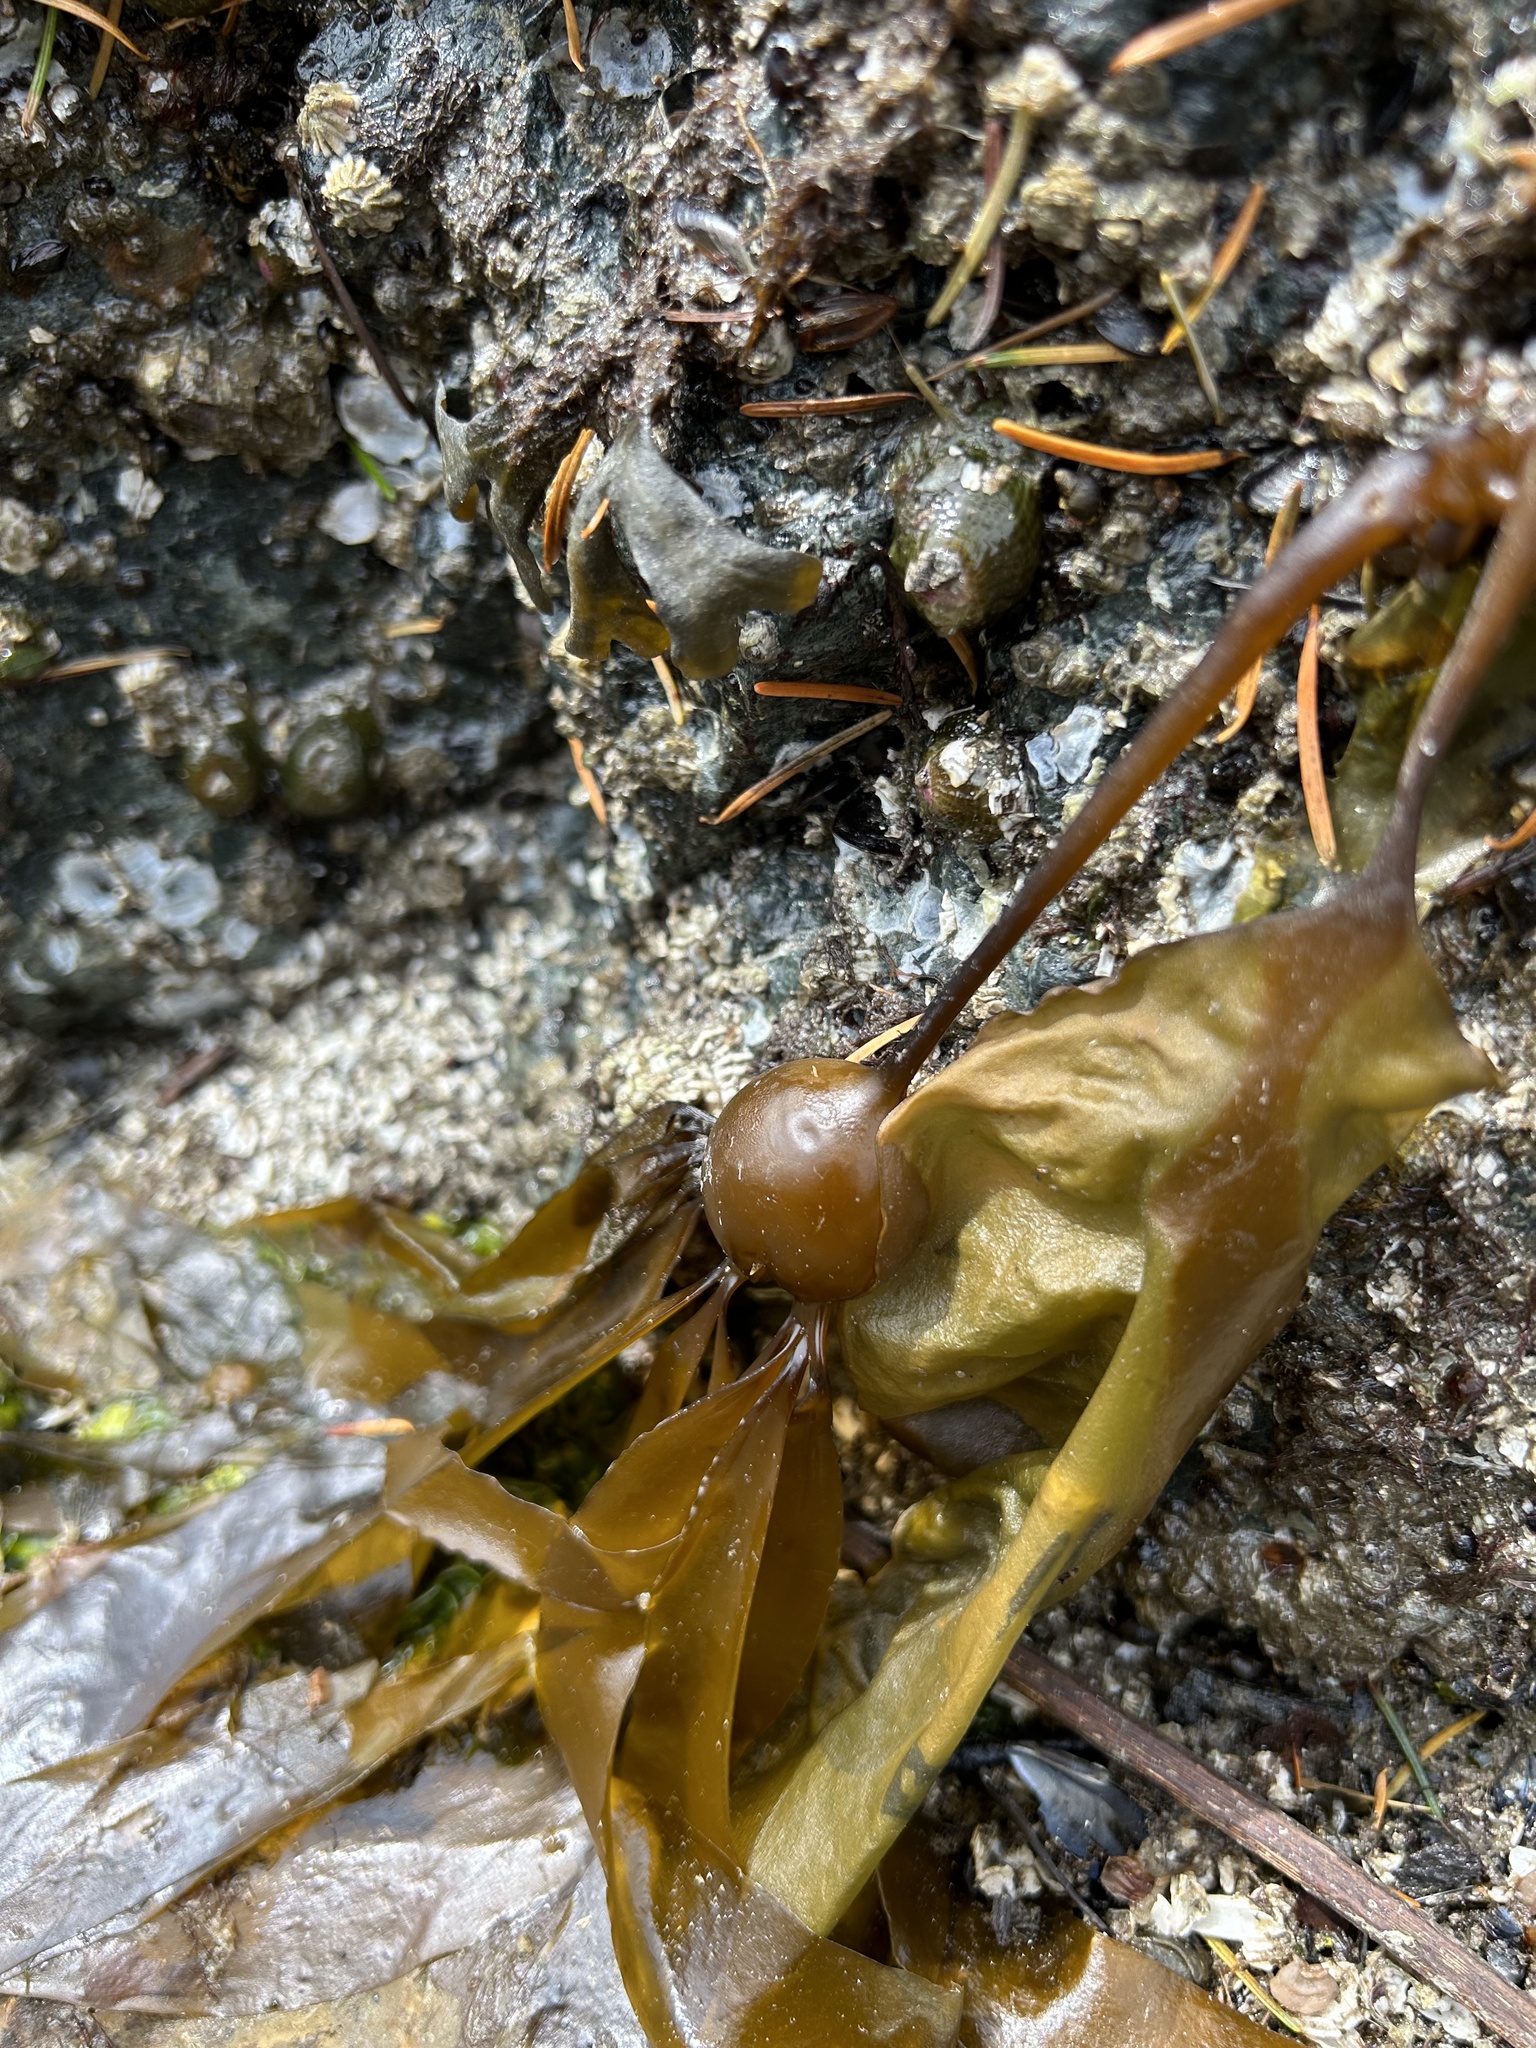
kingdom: Chromista
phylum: Ochrophyta
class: Phaeophyceae
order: Laminariales
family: Laminariaceae
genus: Nereocystis
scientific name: Nereocystis luetkeana
